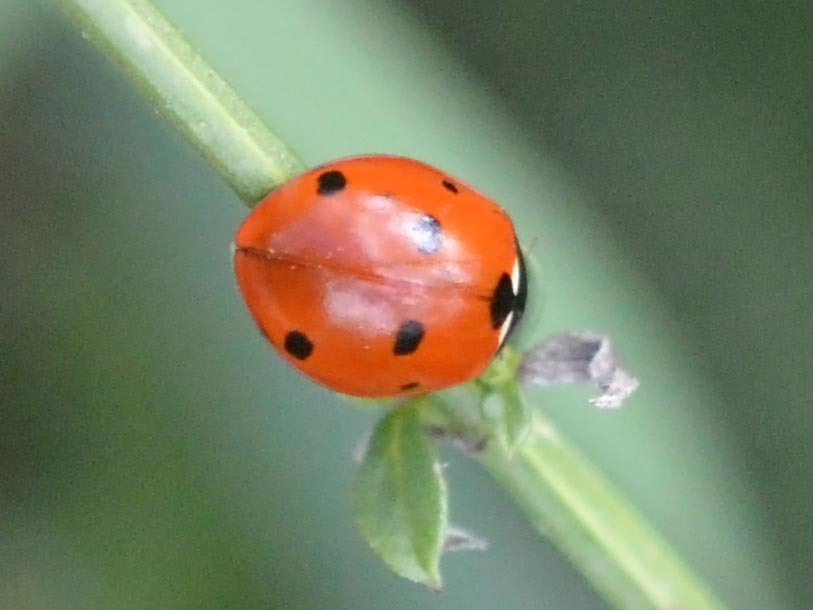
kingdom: Animalia
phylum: Arthropoda
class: Insecta
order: Coleoptera
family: Coccinellidae
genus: Coccinella
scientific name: Coccinella septempunctata
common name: Sevenspotted lady beetle
